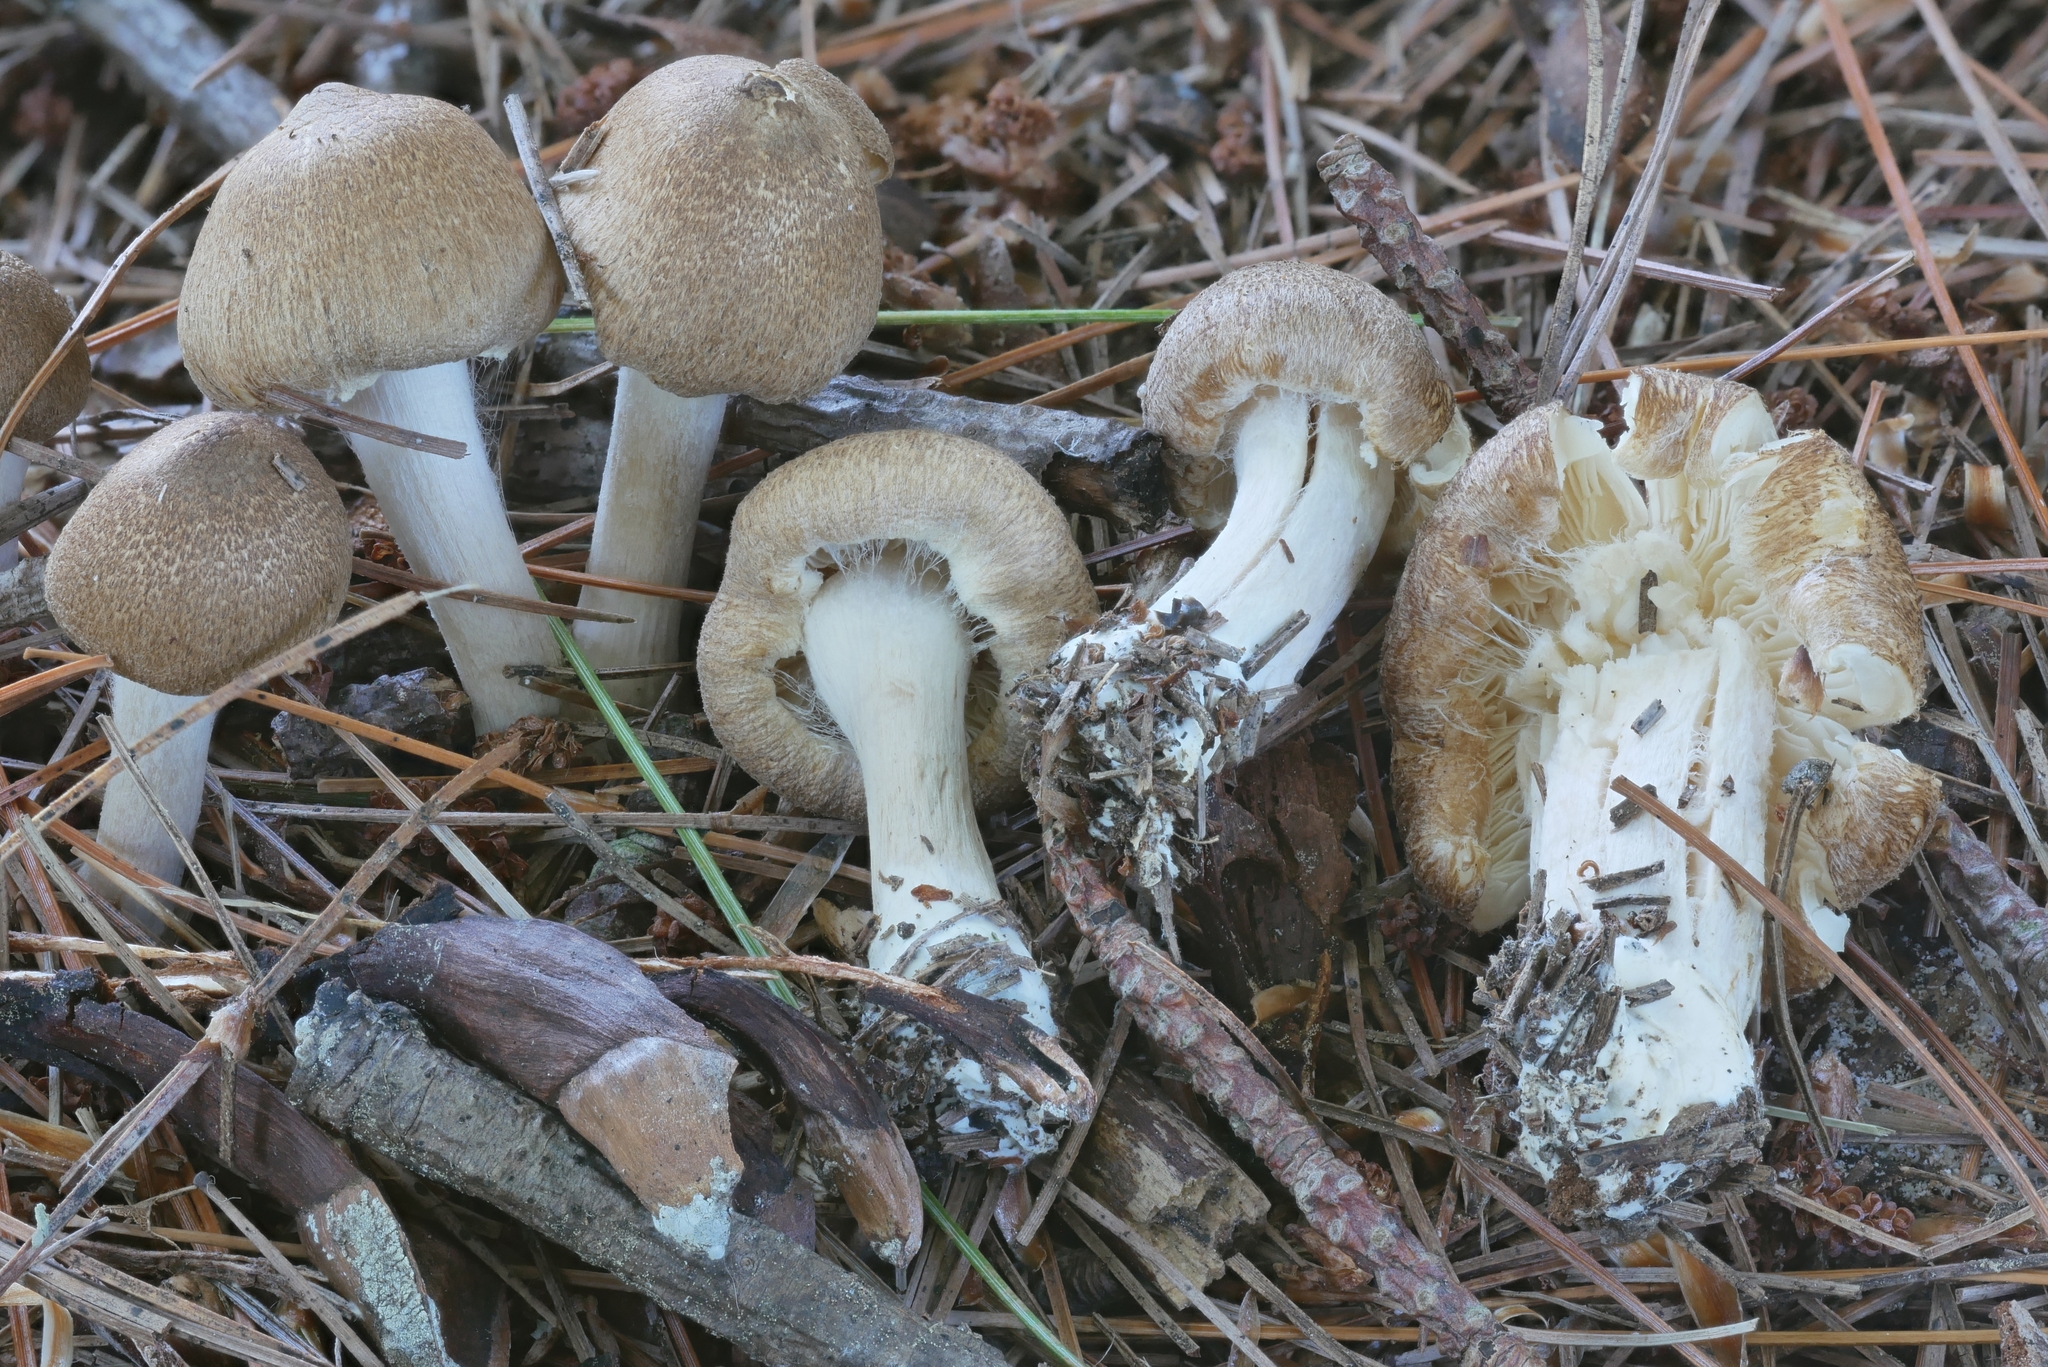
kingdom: Fungi
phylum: Basidiomycota
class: Agaricomycetes
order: Agaricales
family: Inocybaceae
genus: Inocybe
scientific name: Inocybe flocculosa
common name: Fleecy fibrecap
